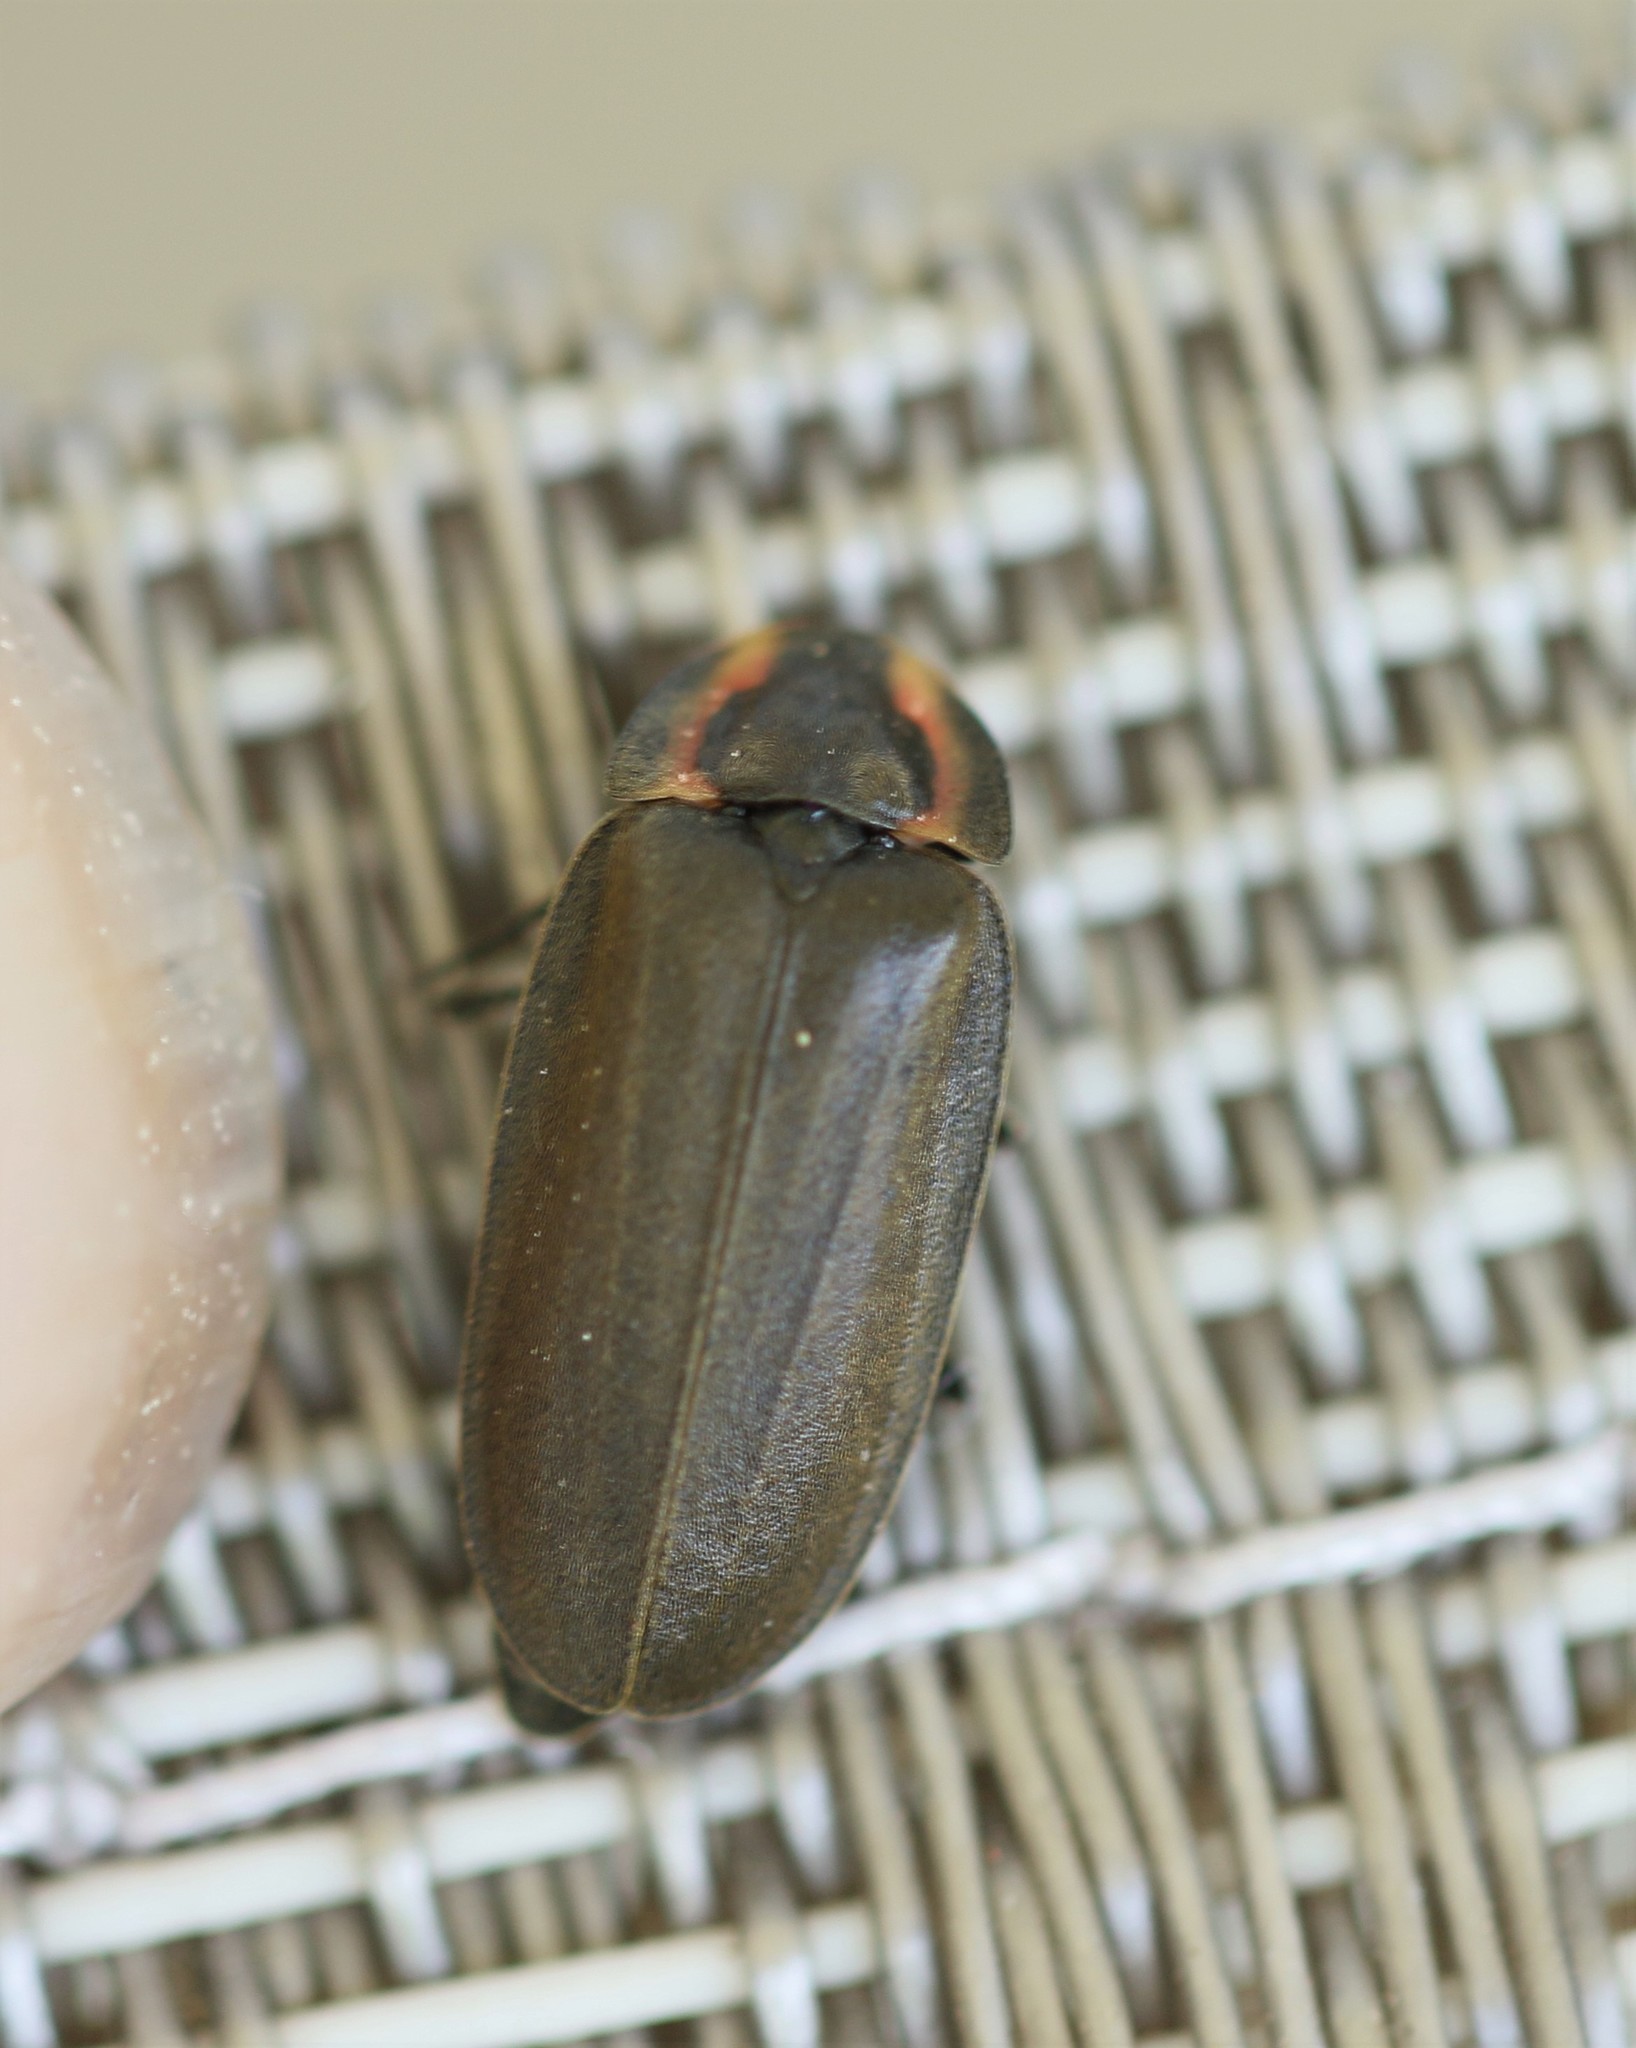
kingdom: Animalia
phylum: Arthropoda
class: Insecta
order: Coleoptera
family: Lampyridae
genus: Photinus
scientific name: Photinus corrusca
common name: Winter firefly
